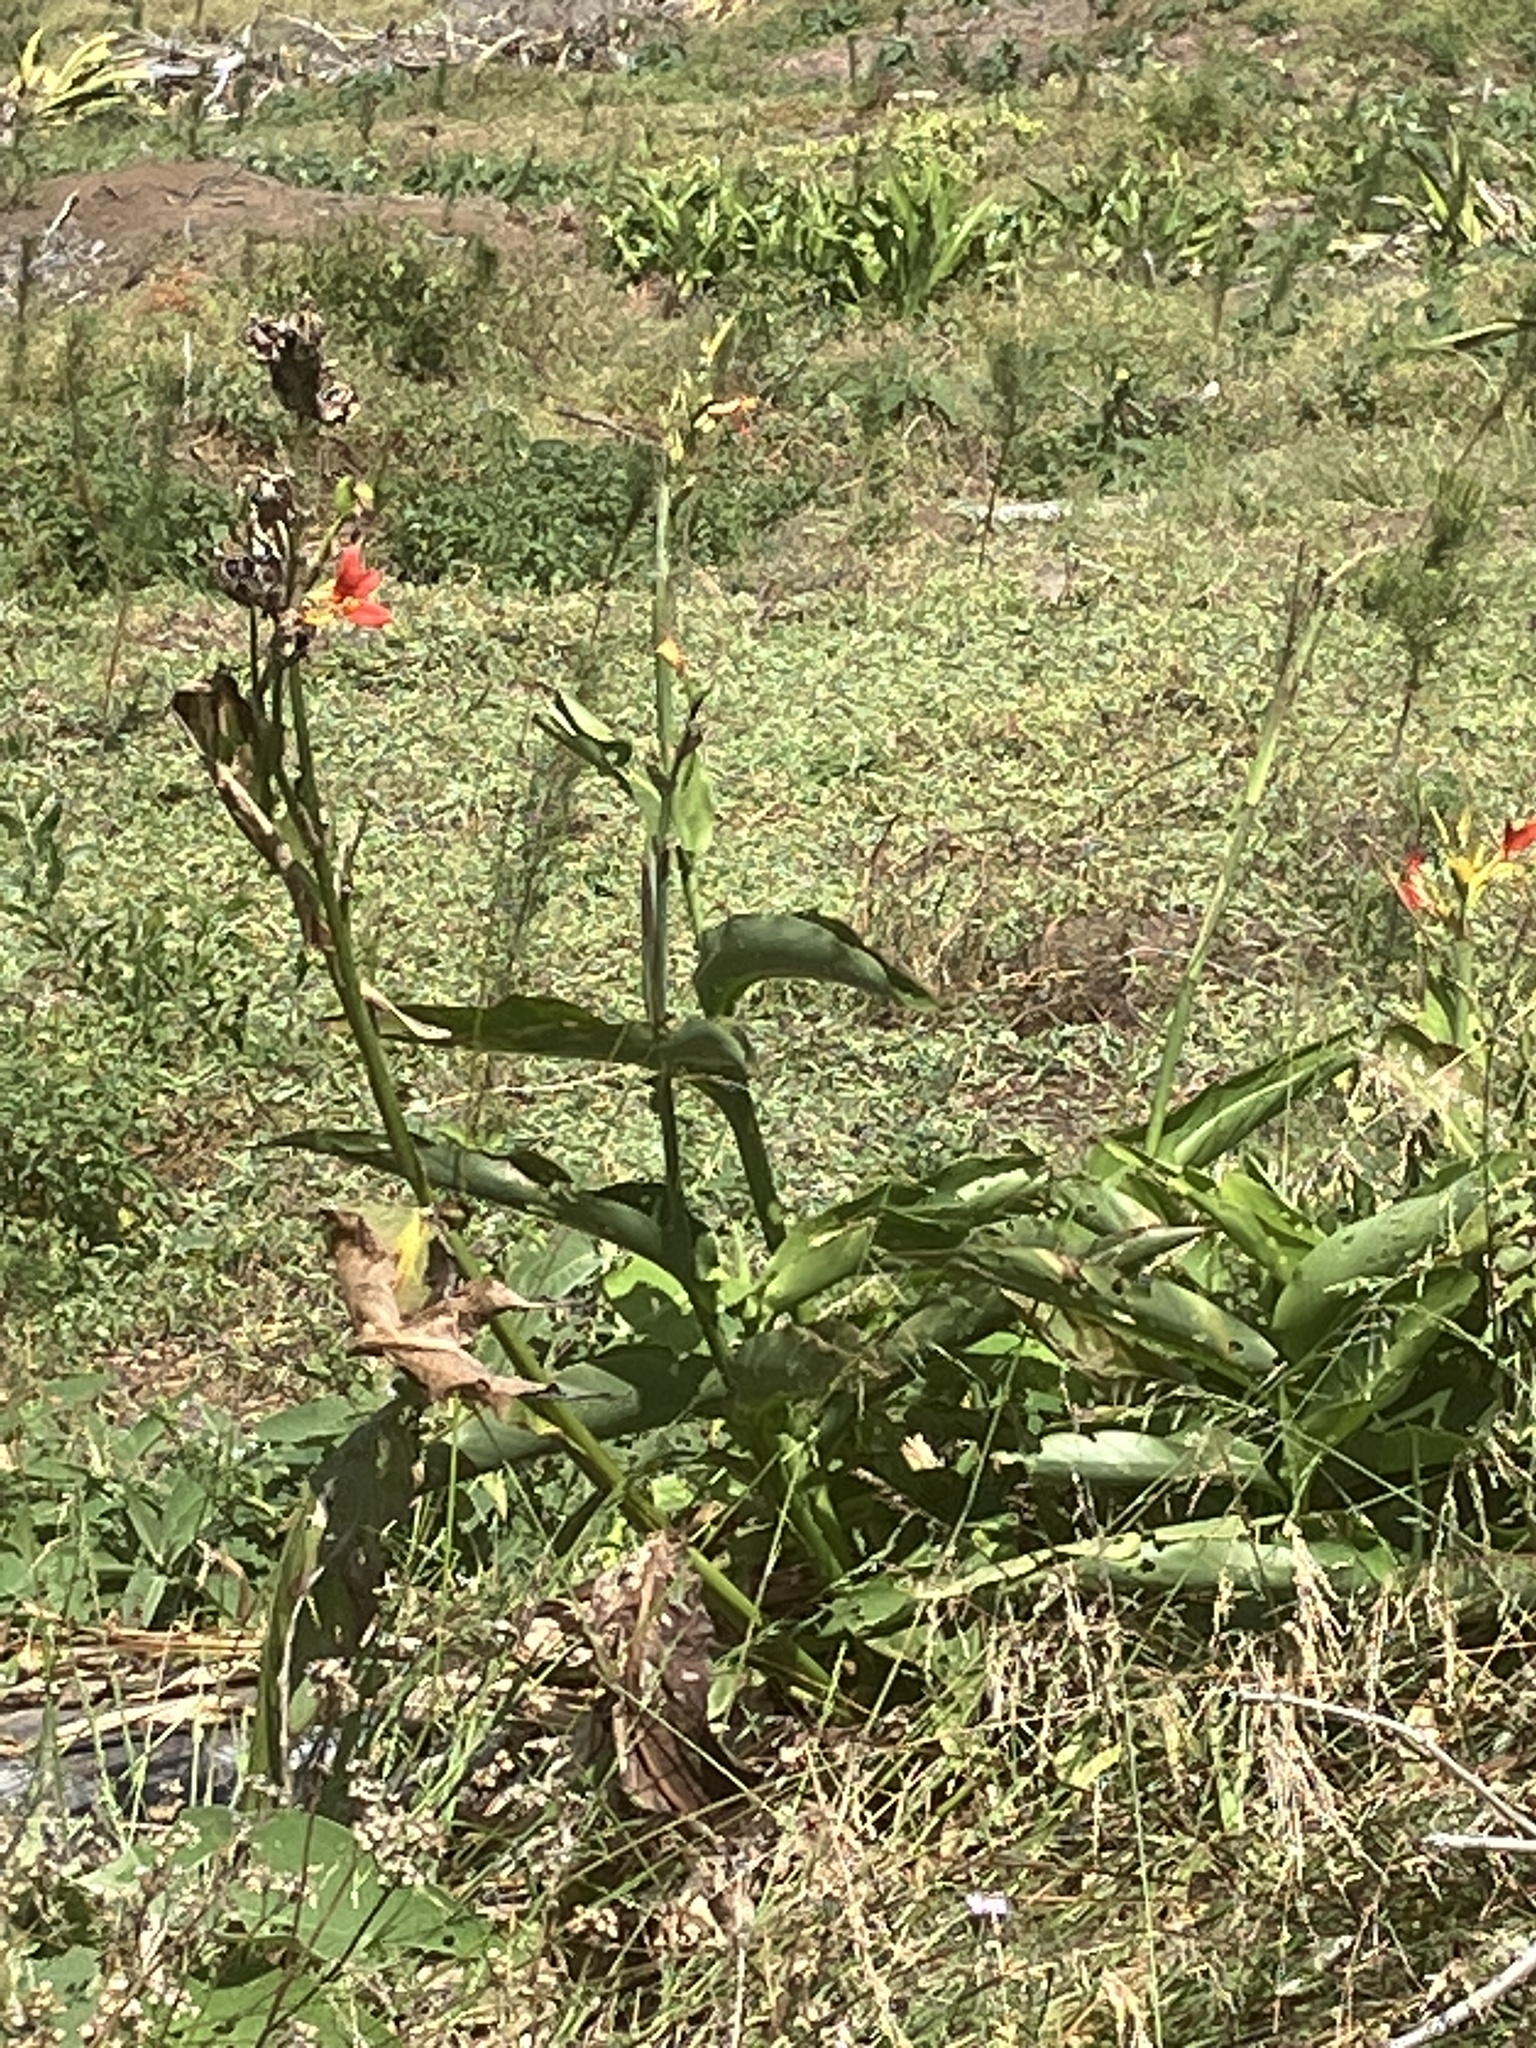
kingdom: Plantae
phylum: Tracheophyta
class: Liliopsida
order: Zingiberales
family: Cannaceae
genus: Canna
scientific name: Canna indica
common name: Indian shot
